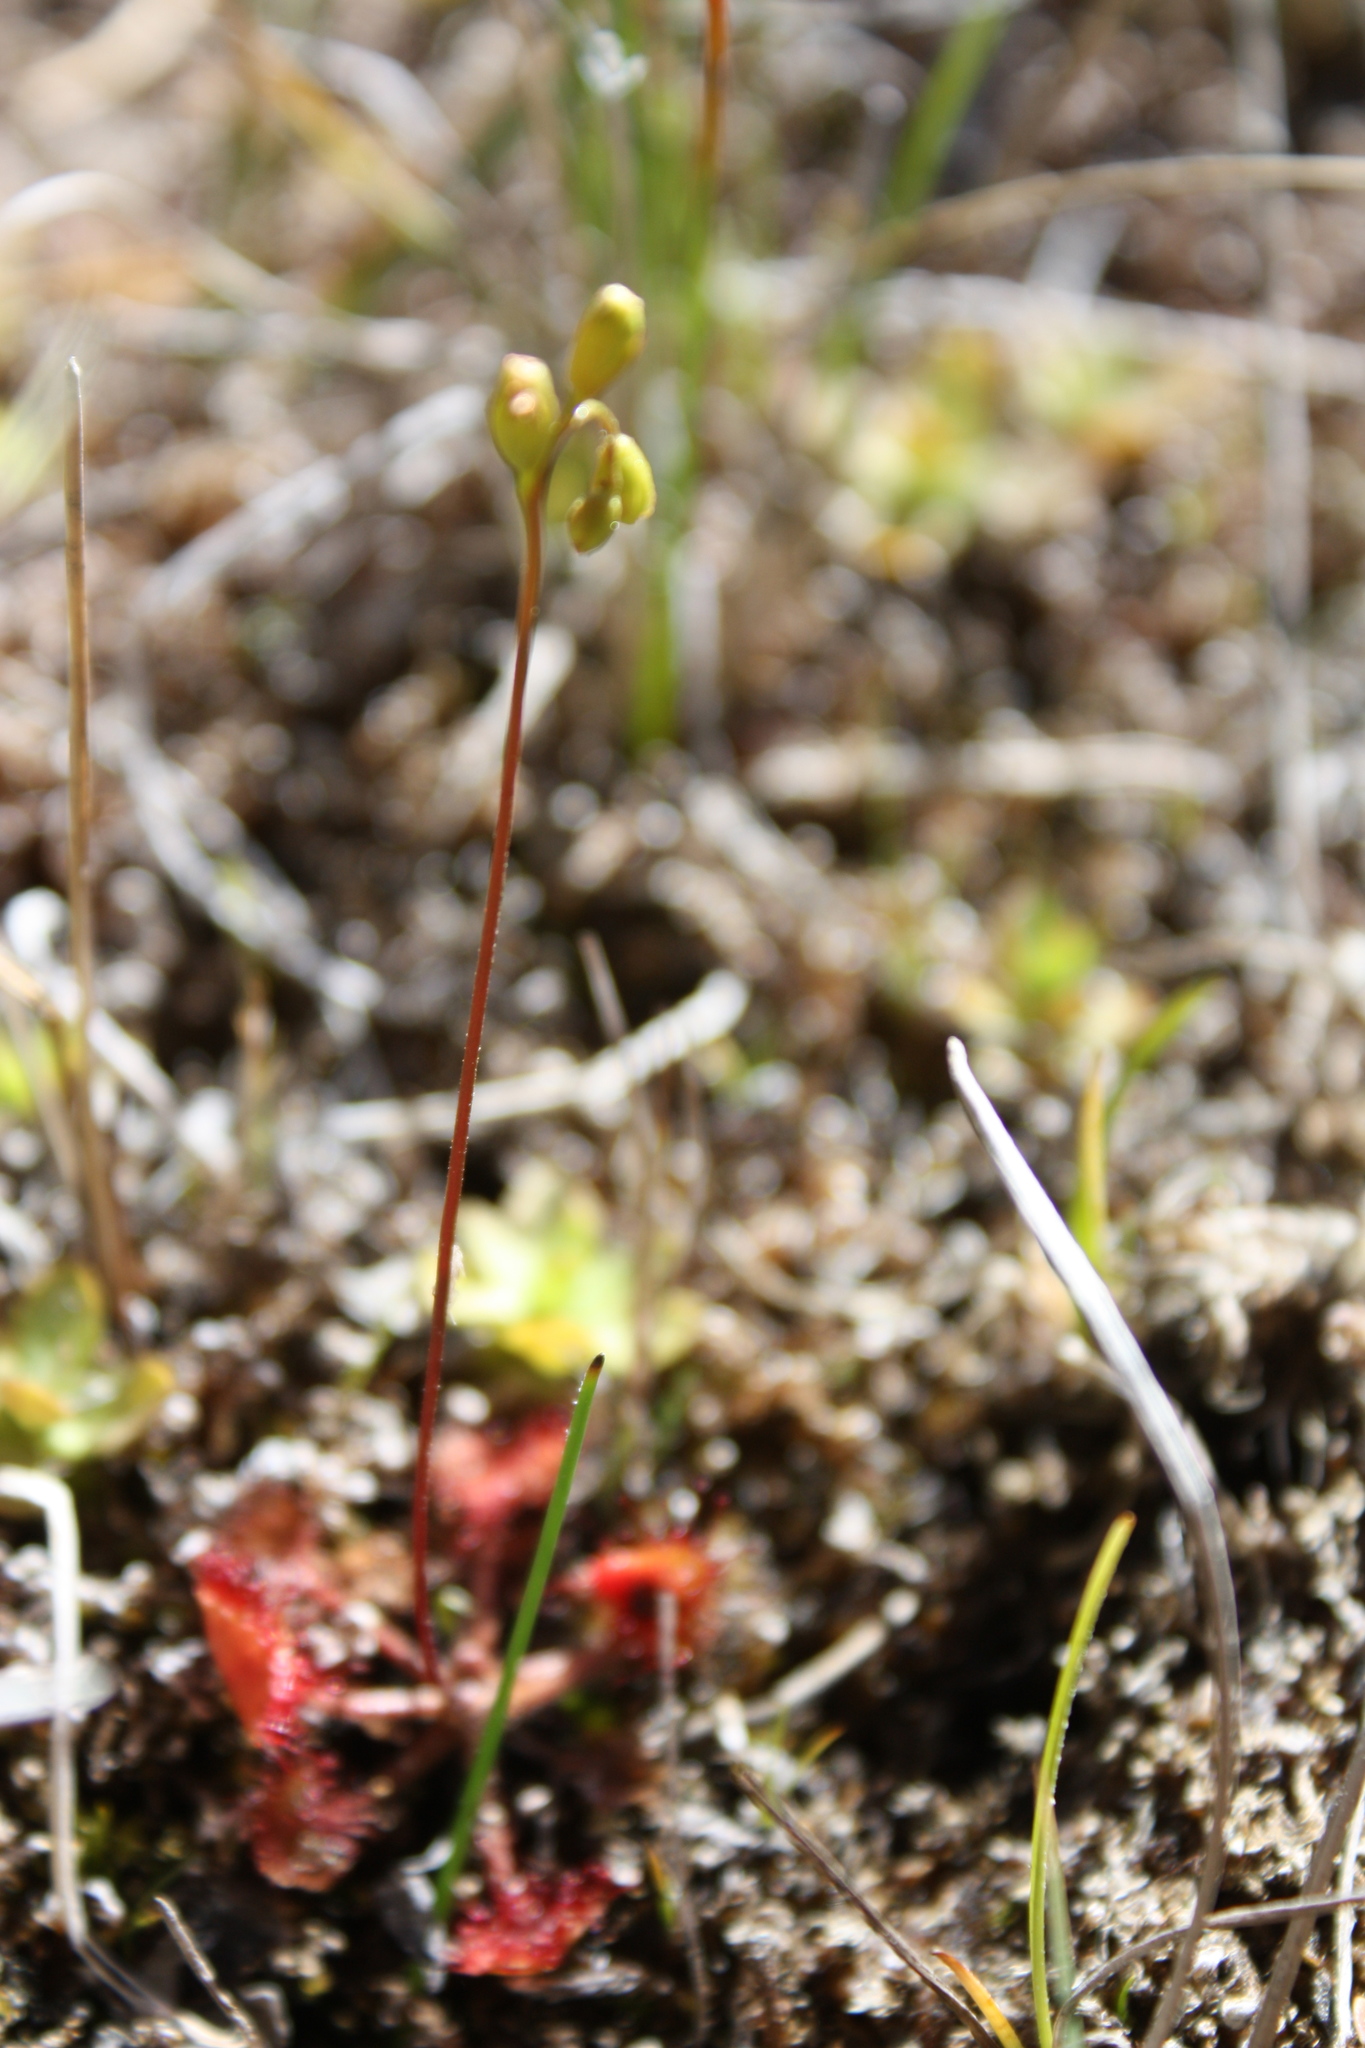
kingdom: Plantae
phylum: Tracheophyta
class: Magnoliopsida
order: Caryophyllales
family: Droseraceae
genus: Drosera
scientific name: Drosera rotundifolia
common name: Round-leaved sundew
